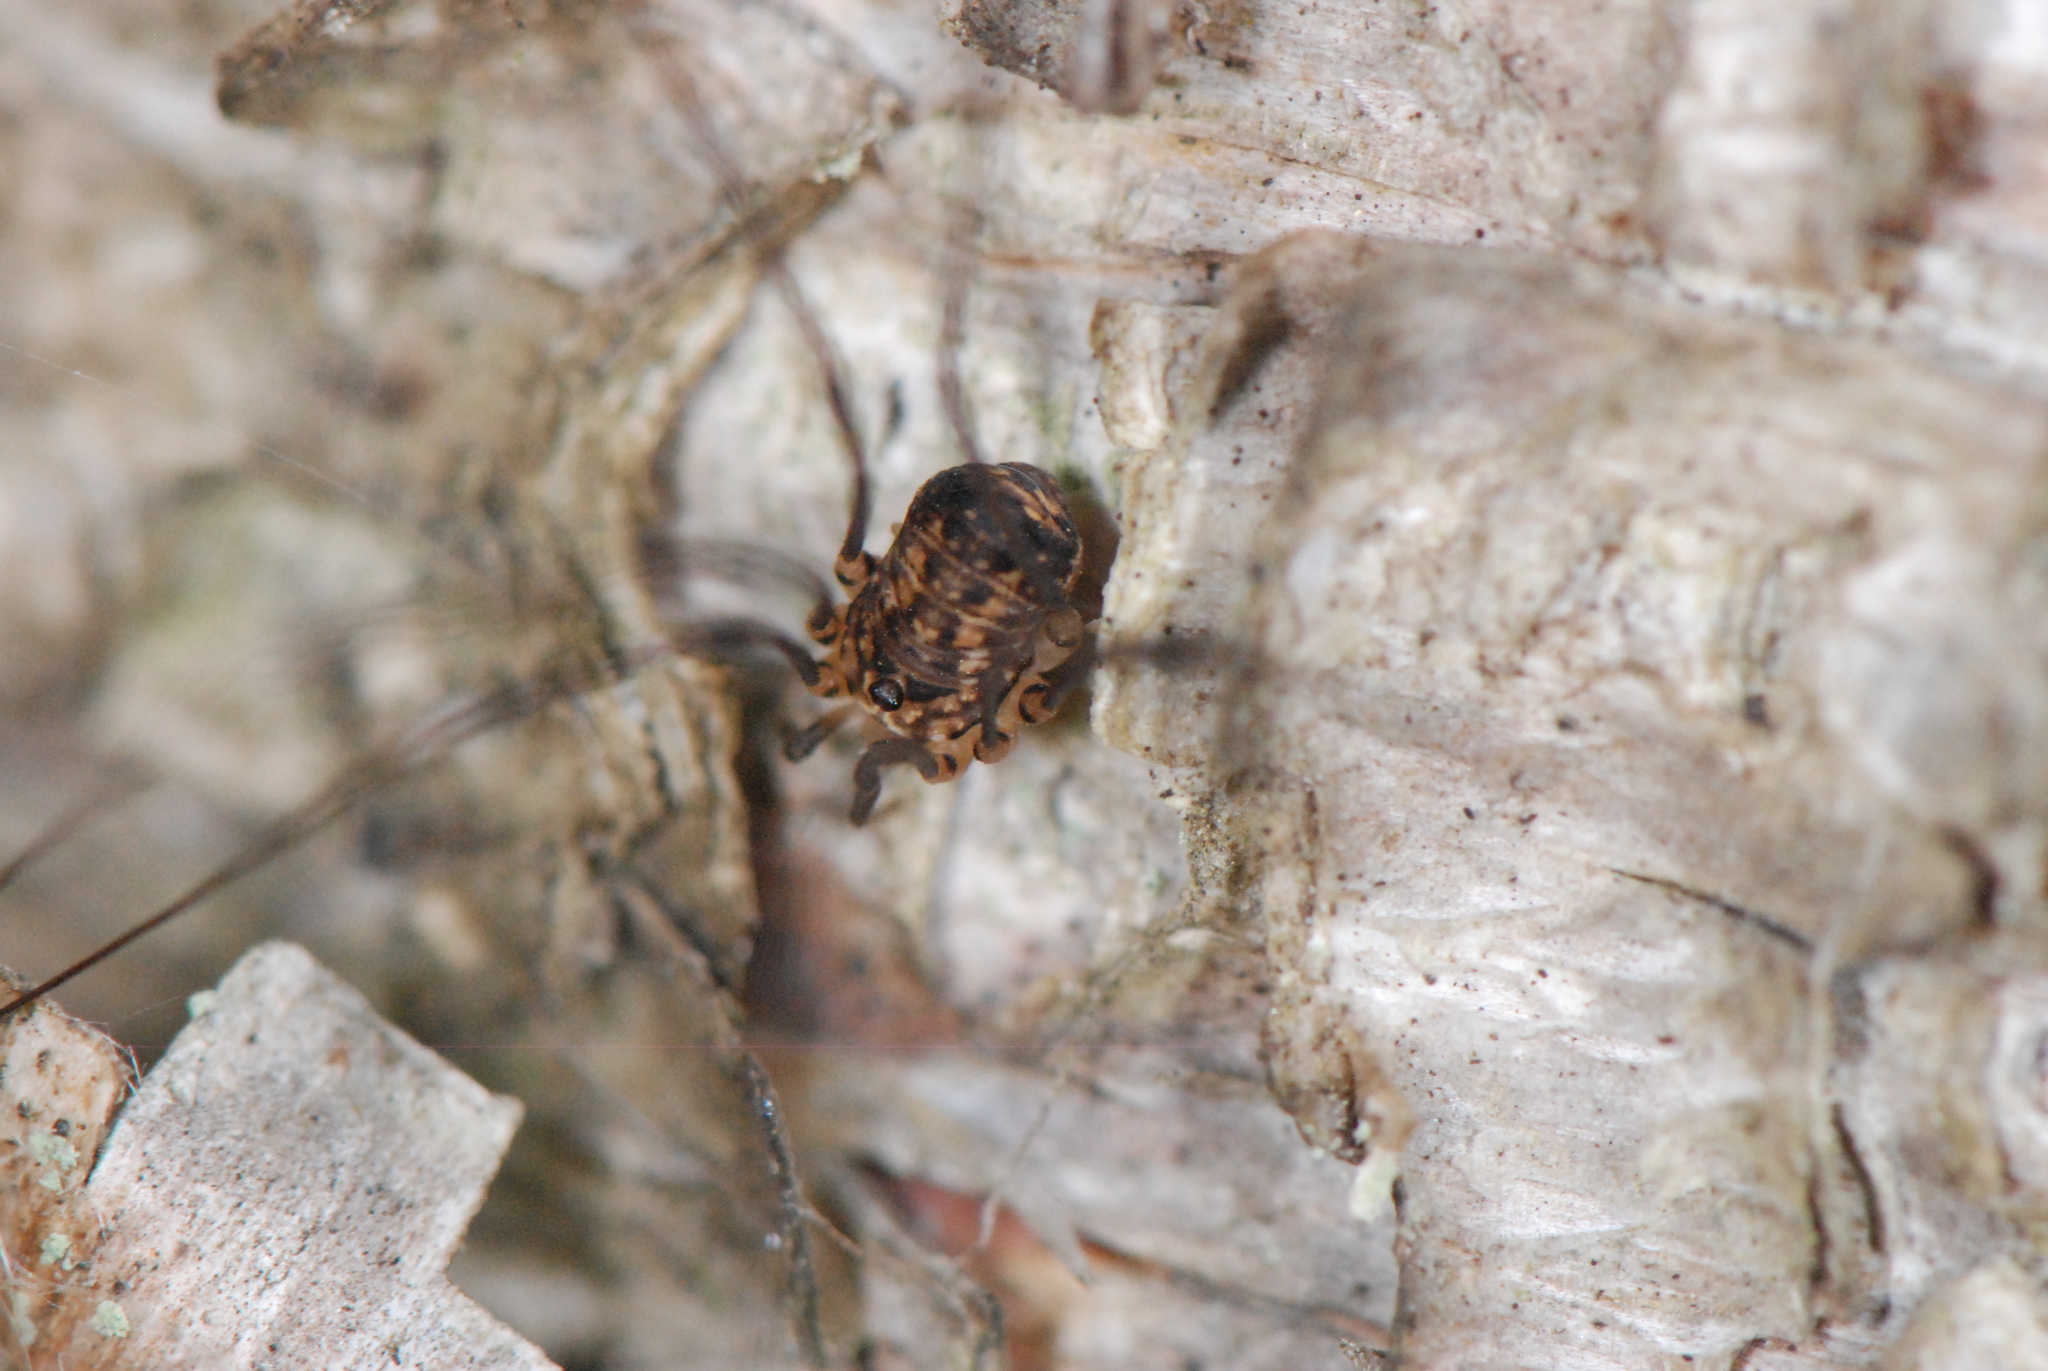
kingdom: Animalia
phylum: Arthropoda
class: Arachnida
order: Opiliones
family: Sclerosomatidae
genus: Nelima
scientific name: Nelima paessleri
